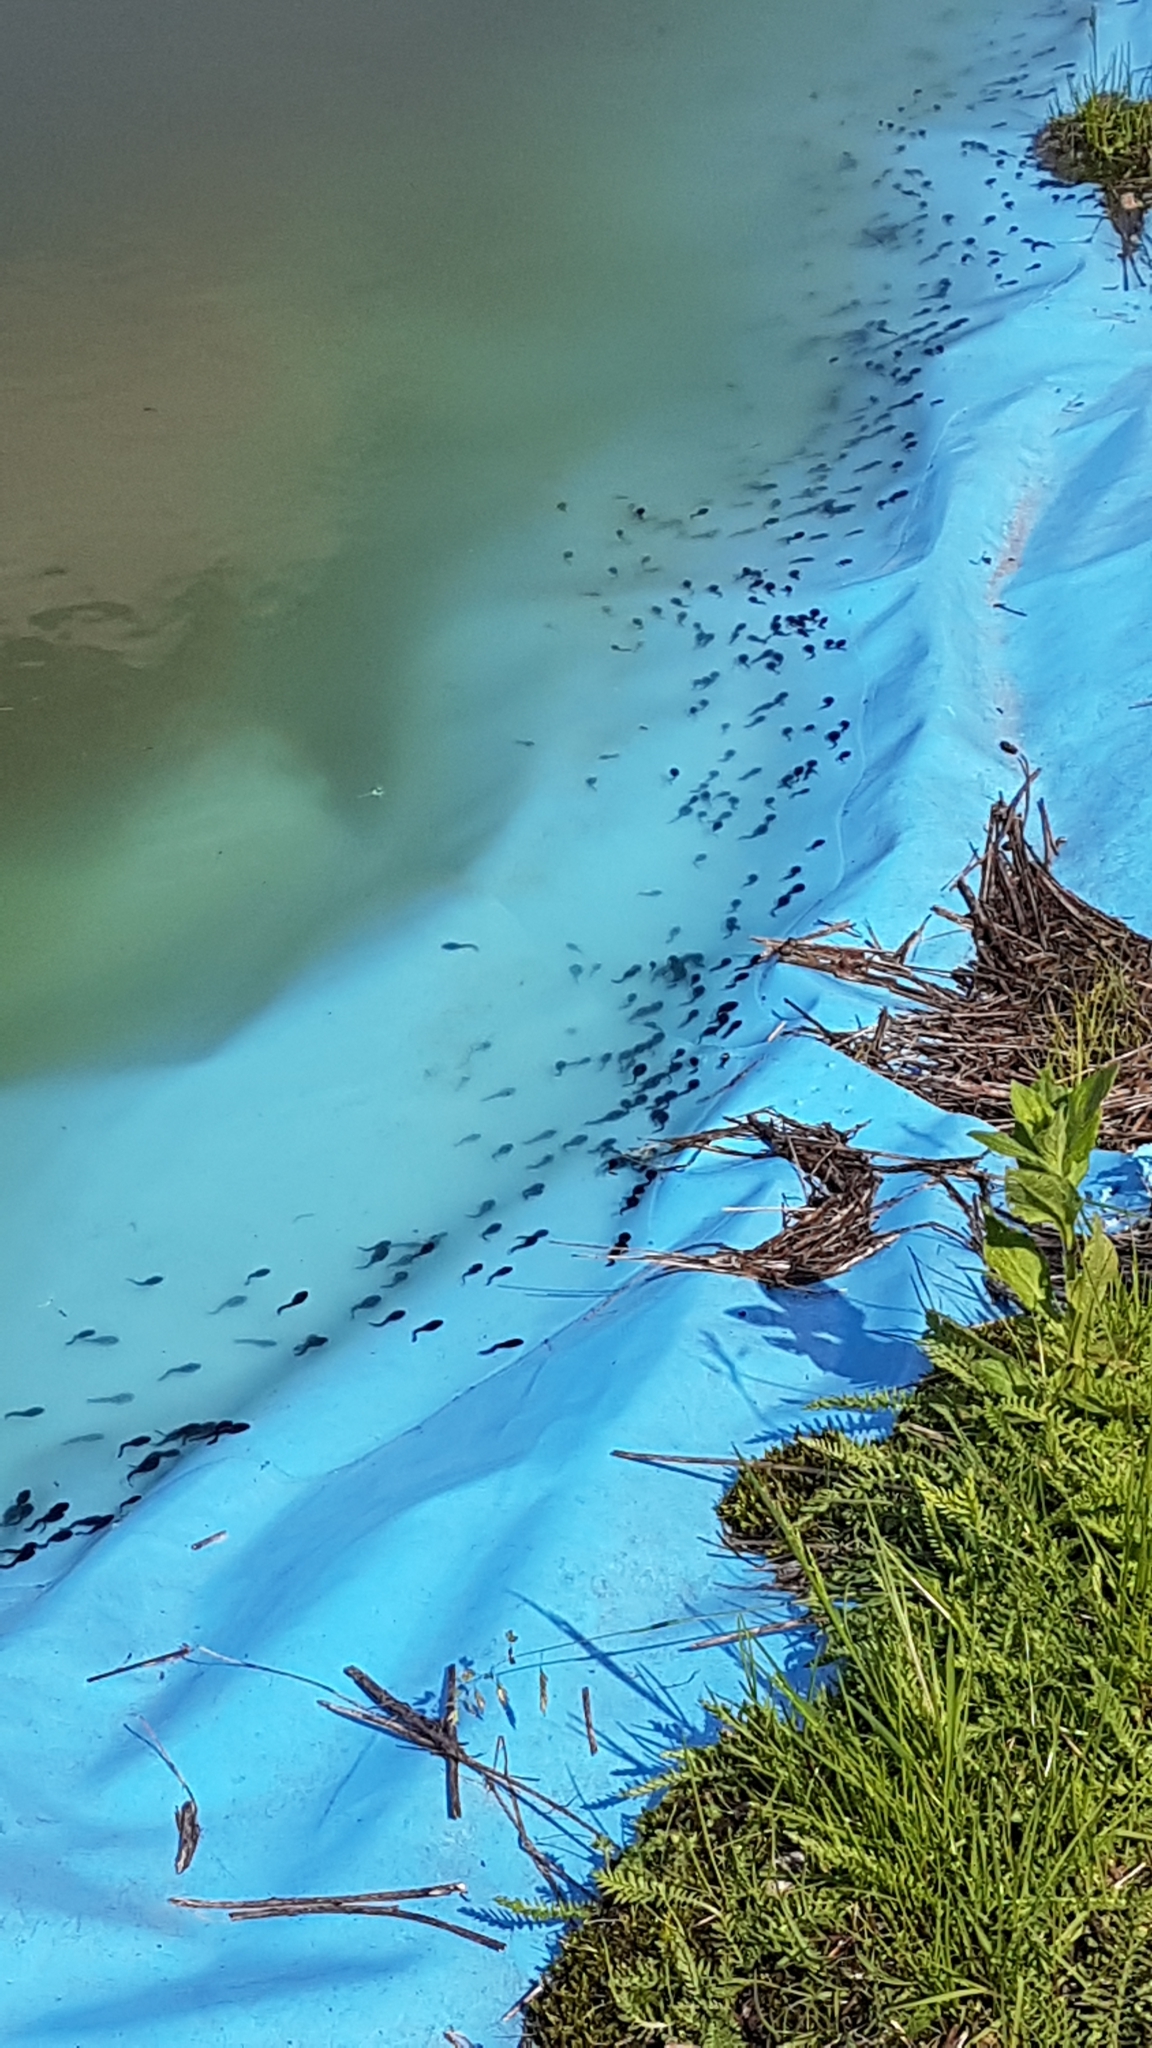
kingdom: Animalia
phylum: Chordata
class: Amphibia
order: Anura
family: Bufonidae
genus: Bufo
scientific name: Bufo bufo
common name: Common toad
